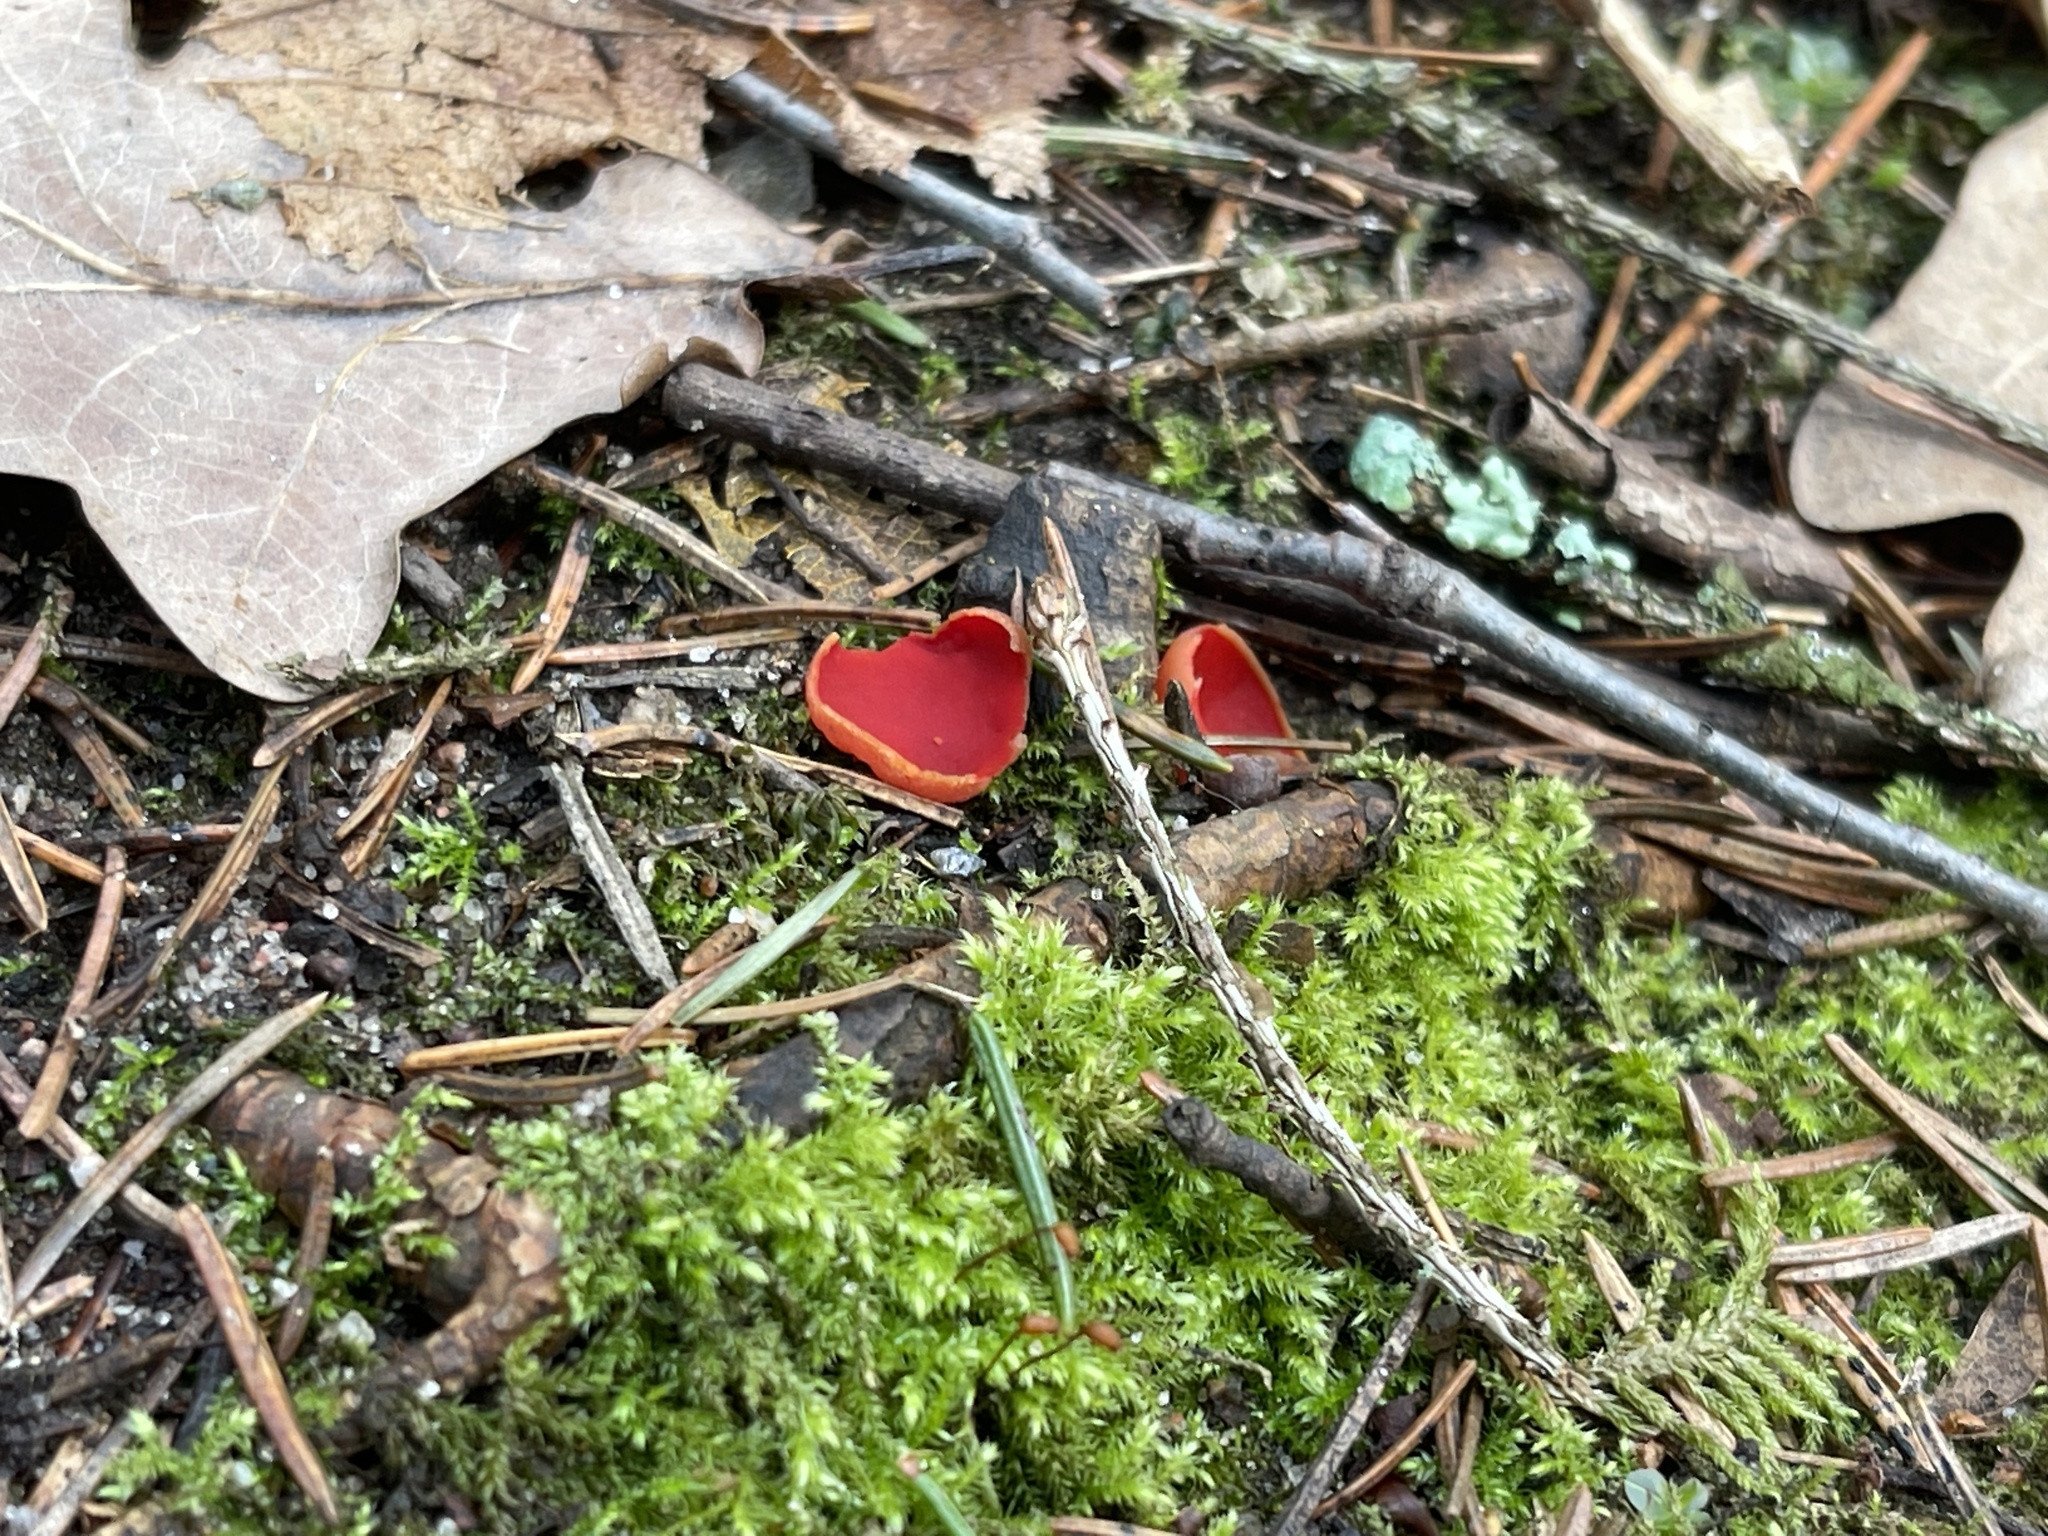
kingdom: Fungi
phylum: Ascomycota
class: Pezizomycetes
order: Pezizales
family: Sarcoscyphaceae
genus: Sarcoscypha
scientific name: Sarcoscypha
